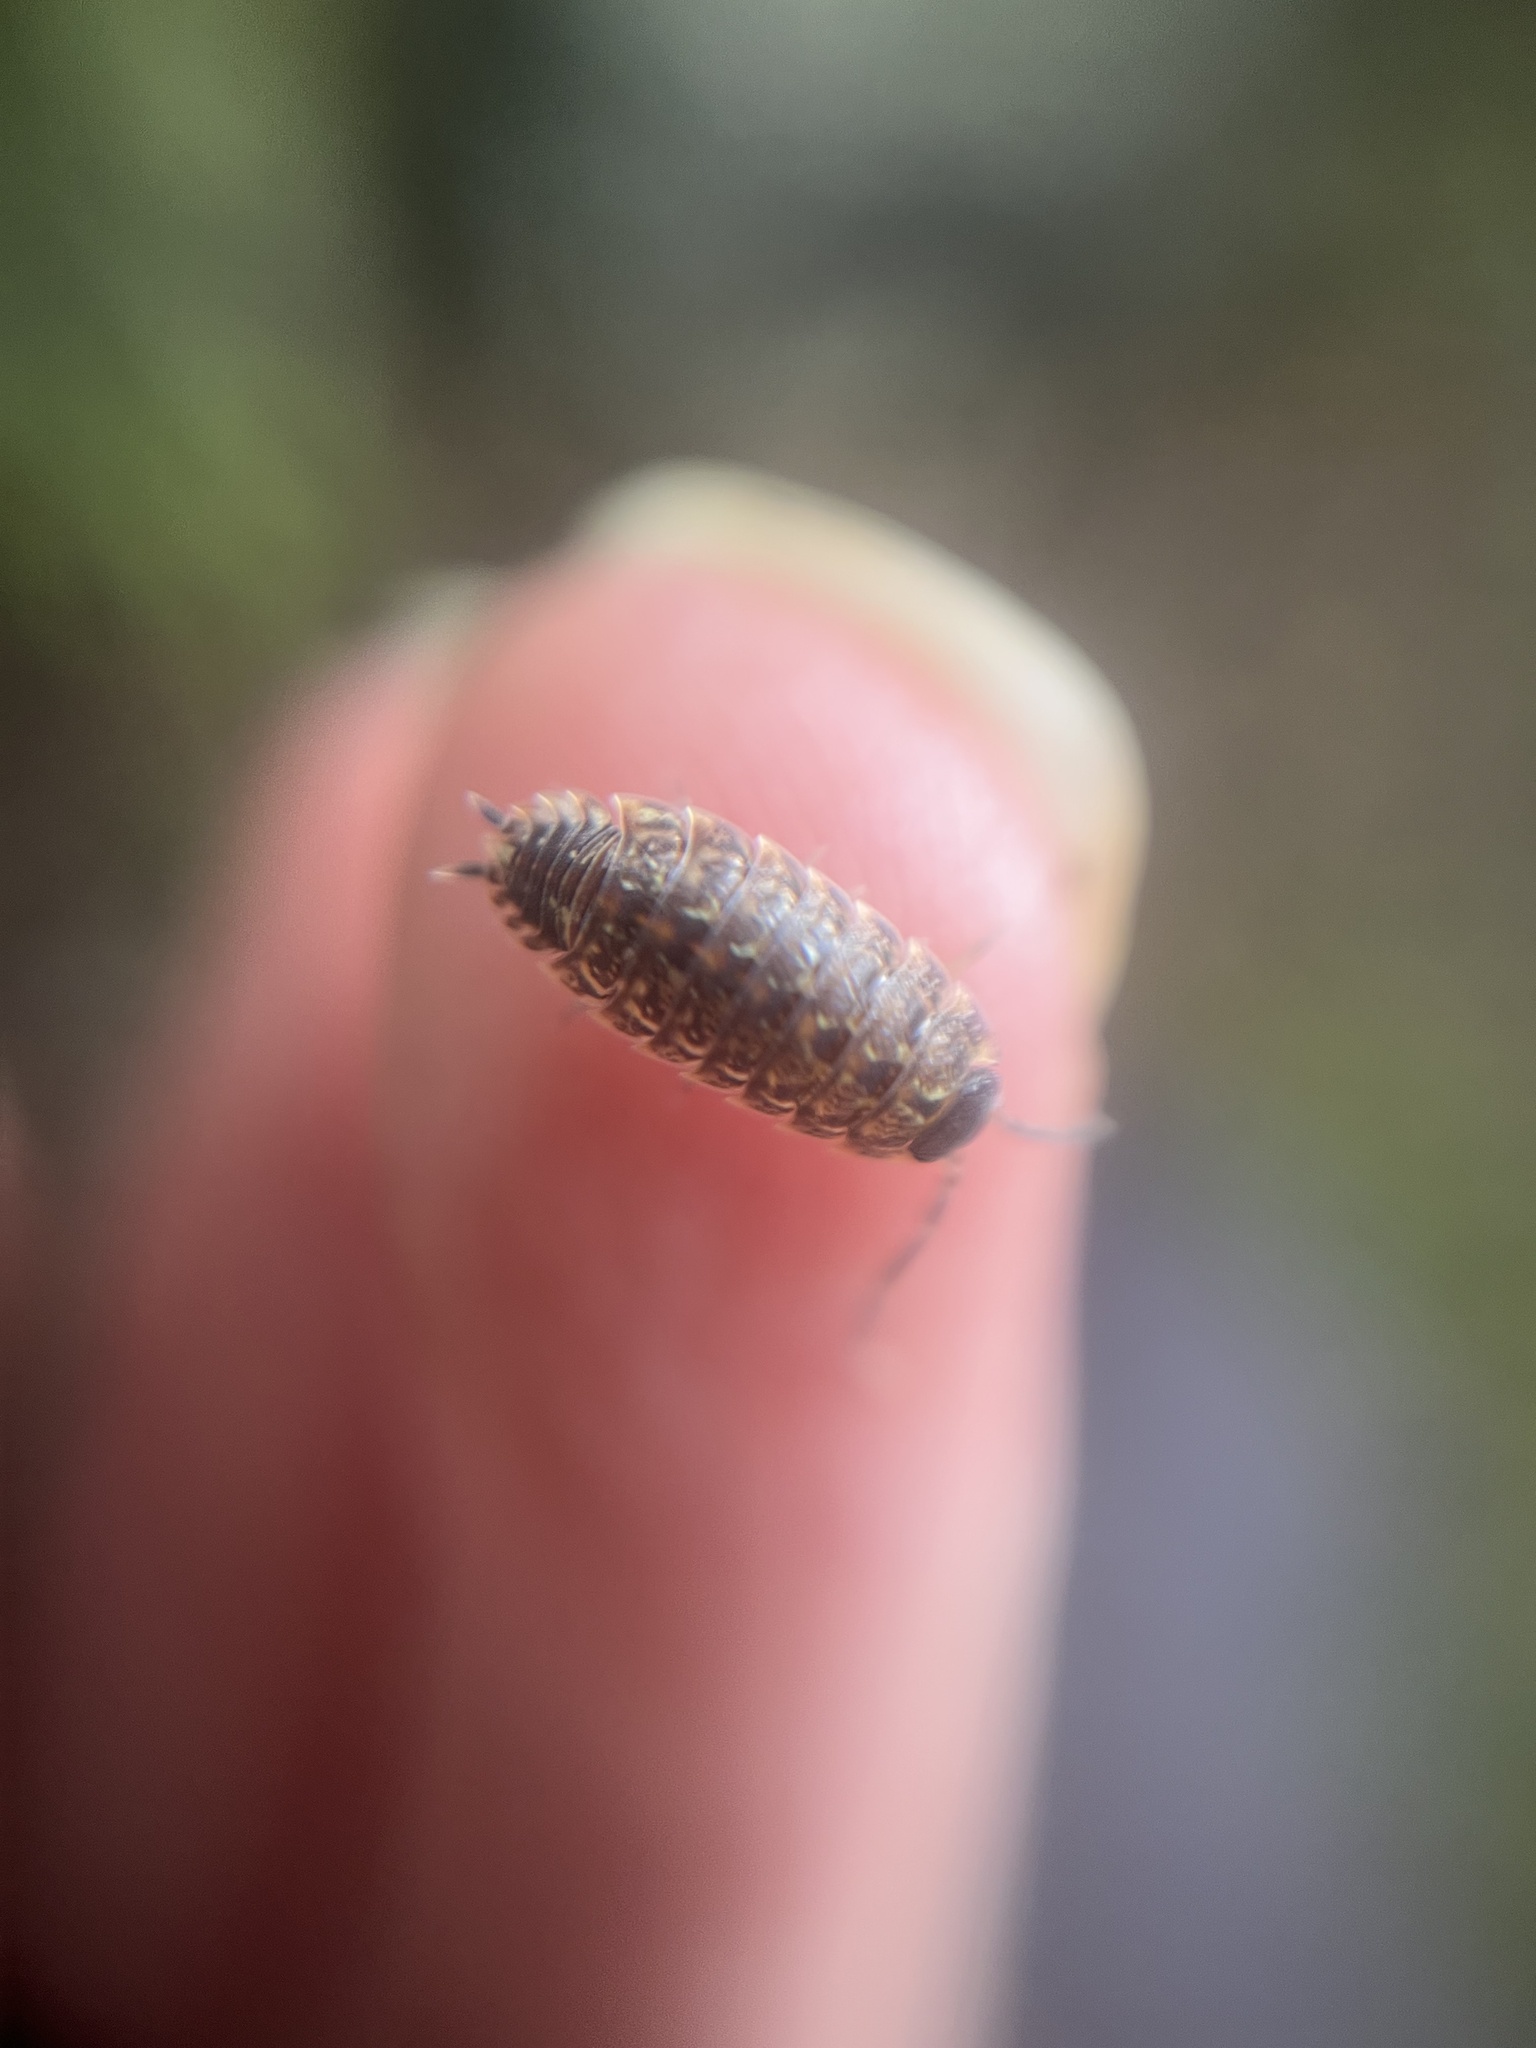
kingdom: Animalia
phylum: Arthropoda
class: Malacostraca
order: Isopoda
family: Porcellionidae
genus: Porcellio
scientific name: Porcellio spinicornis
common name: Painted woodlouse
